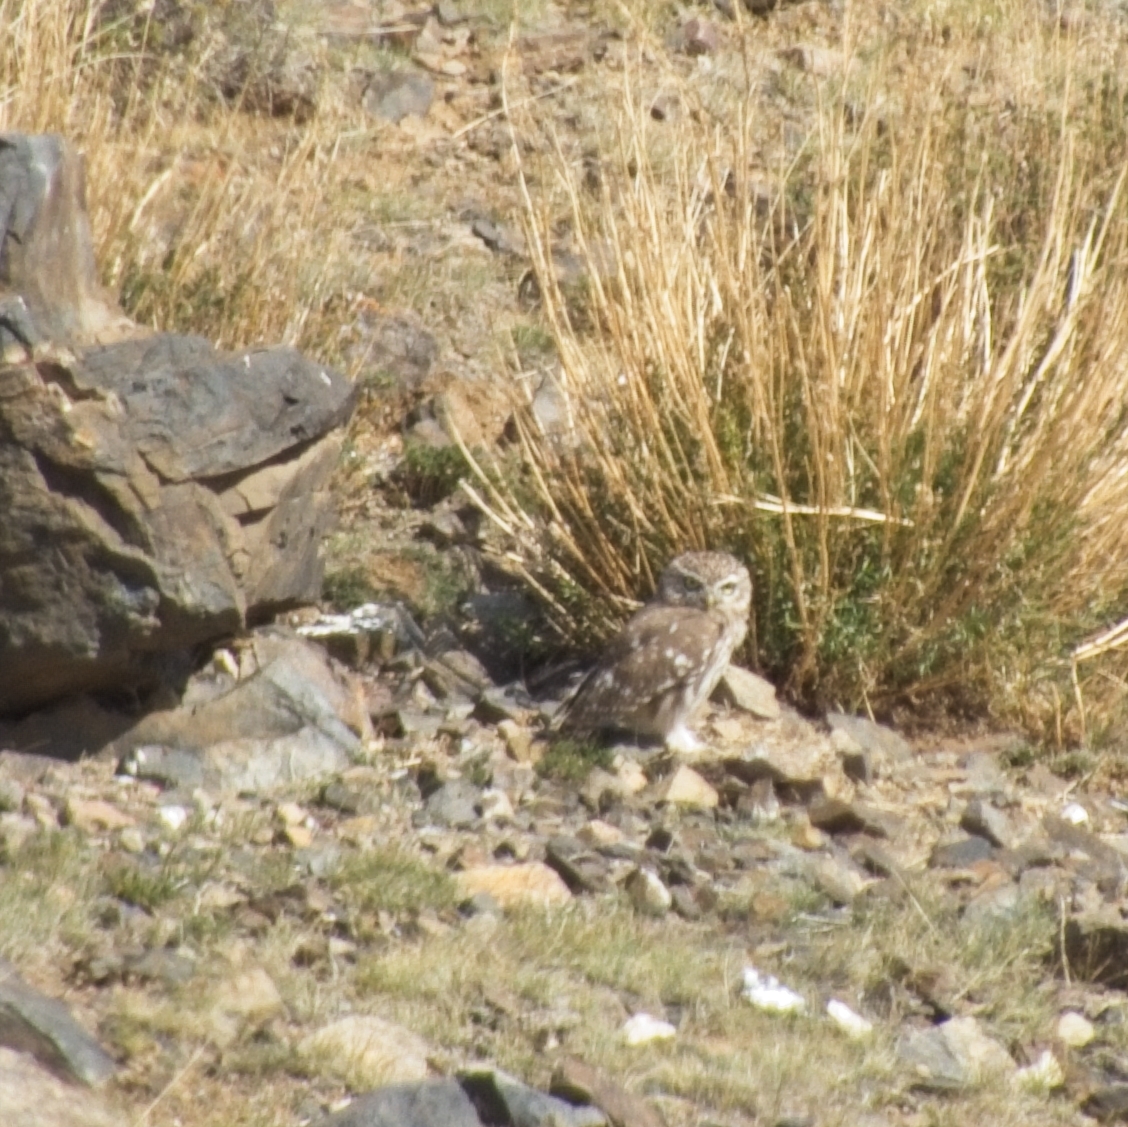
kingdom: Animalia
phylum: Chordata
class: Aves
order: Strigiformes
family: Strigidae
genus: Athene
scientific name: Athene noctua
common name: Little owl
